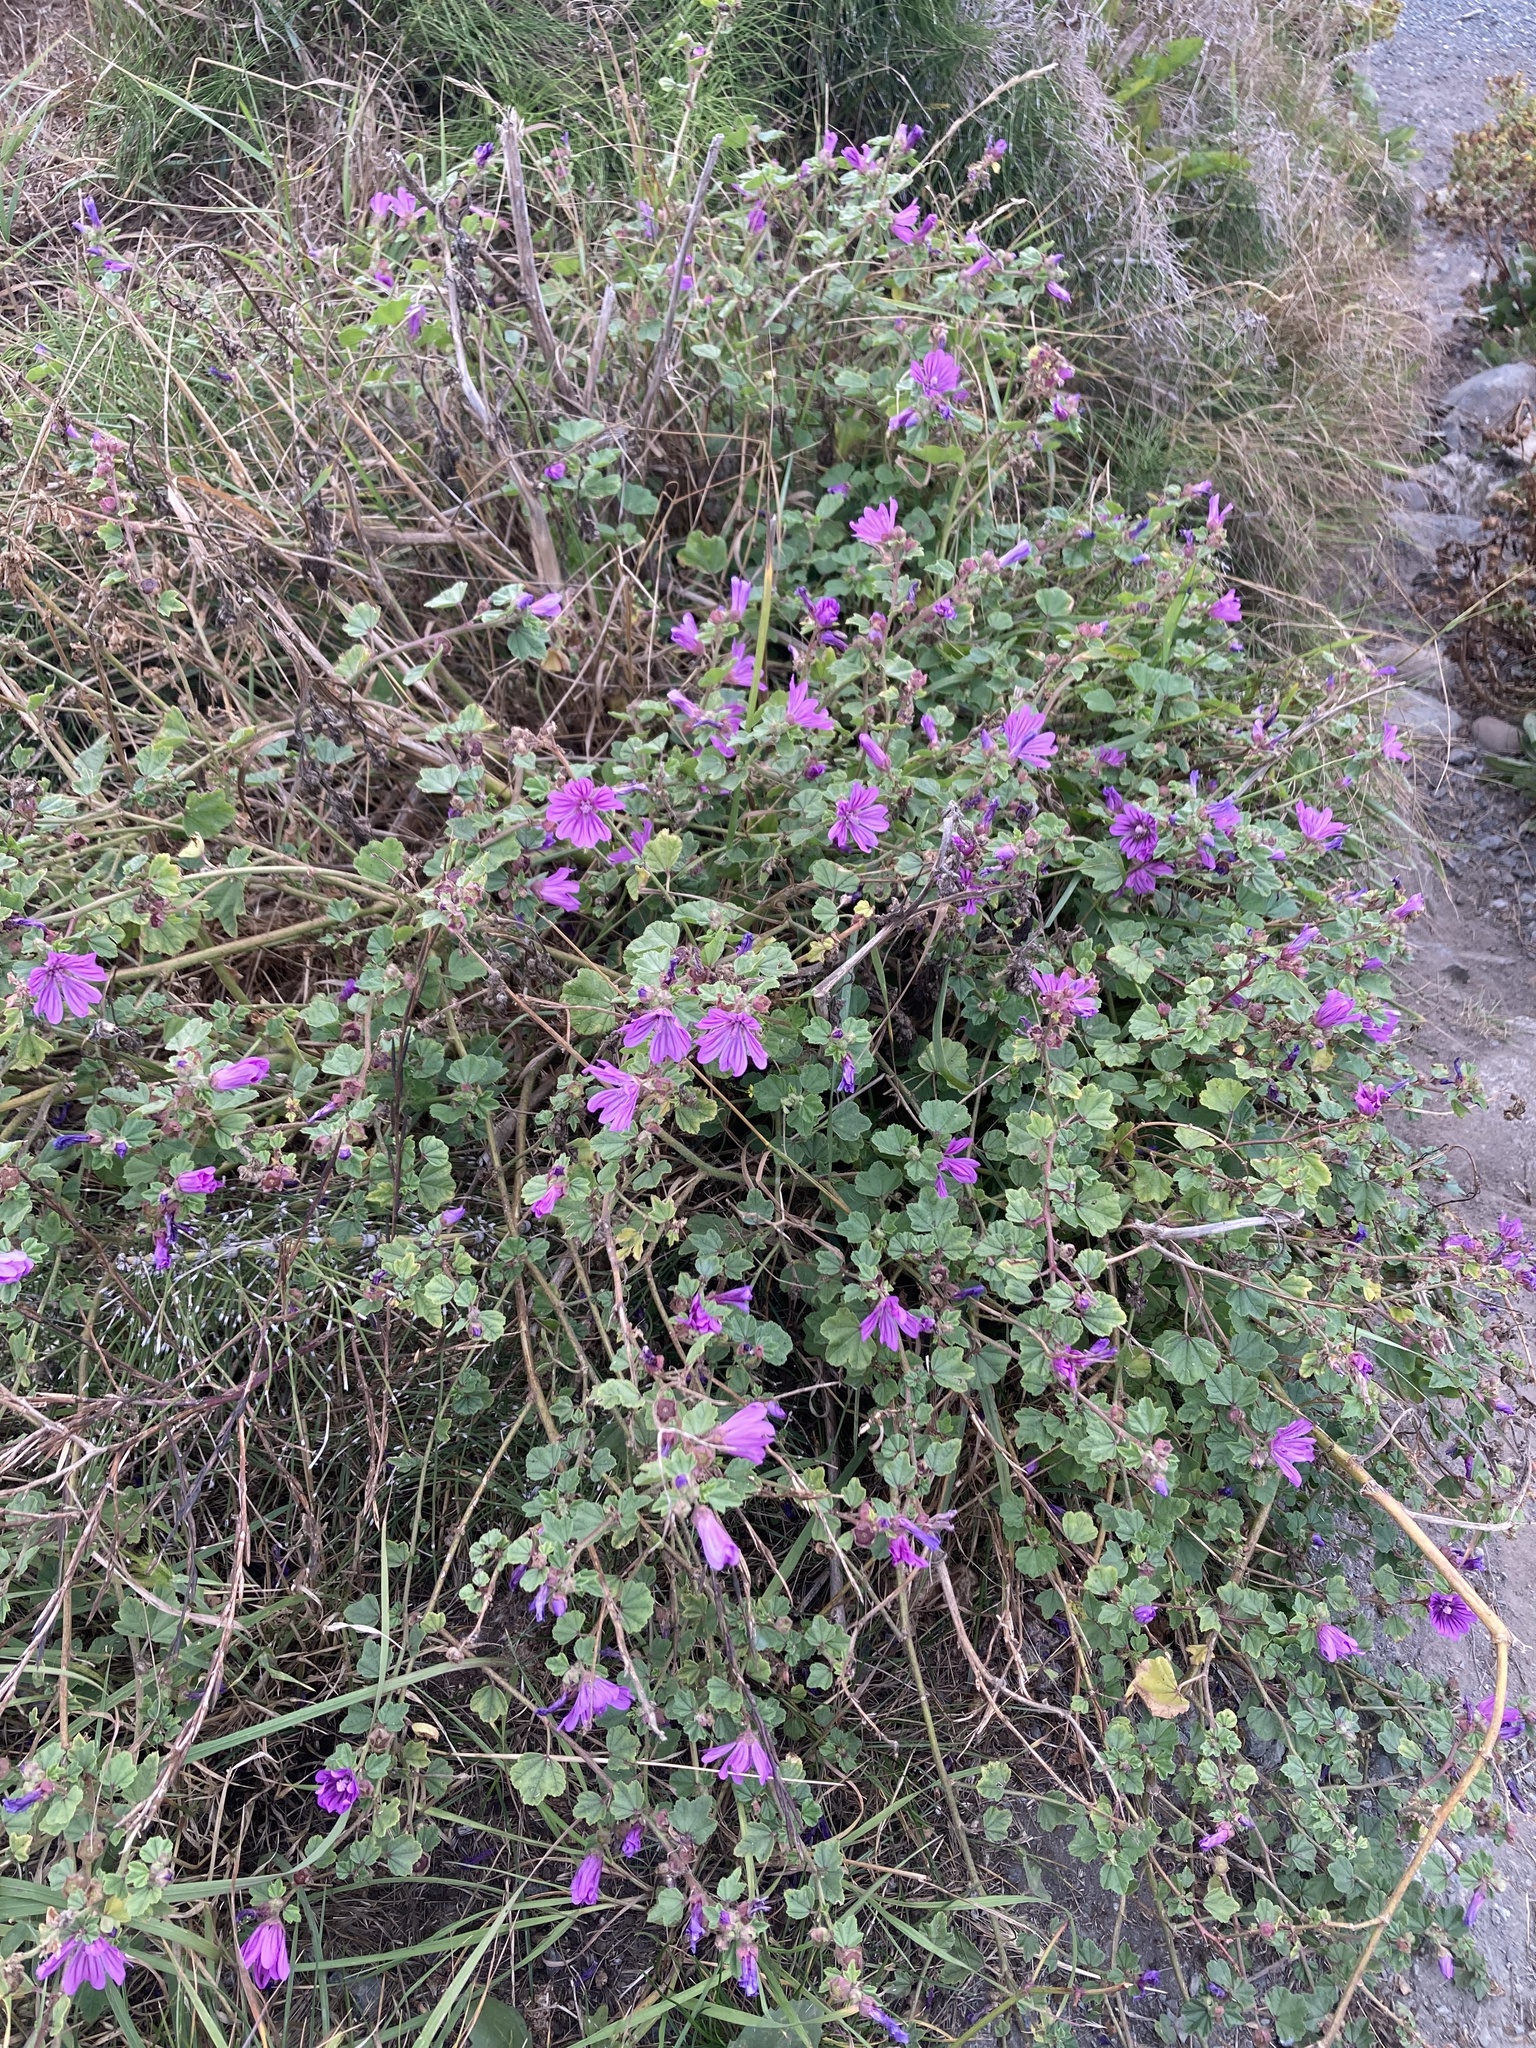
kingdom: Plantae
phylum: Tracheophyta
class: Magnoliopsida
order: Malvales
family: Malvaceae
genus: Malva
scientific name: Malva sylvestris
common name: Common mallow
